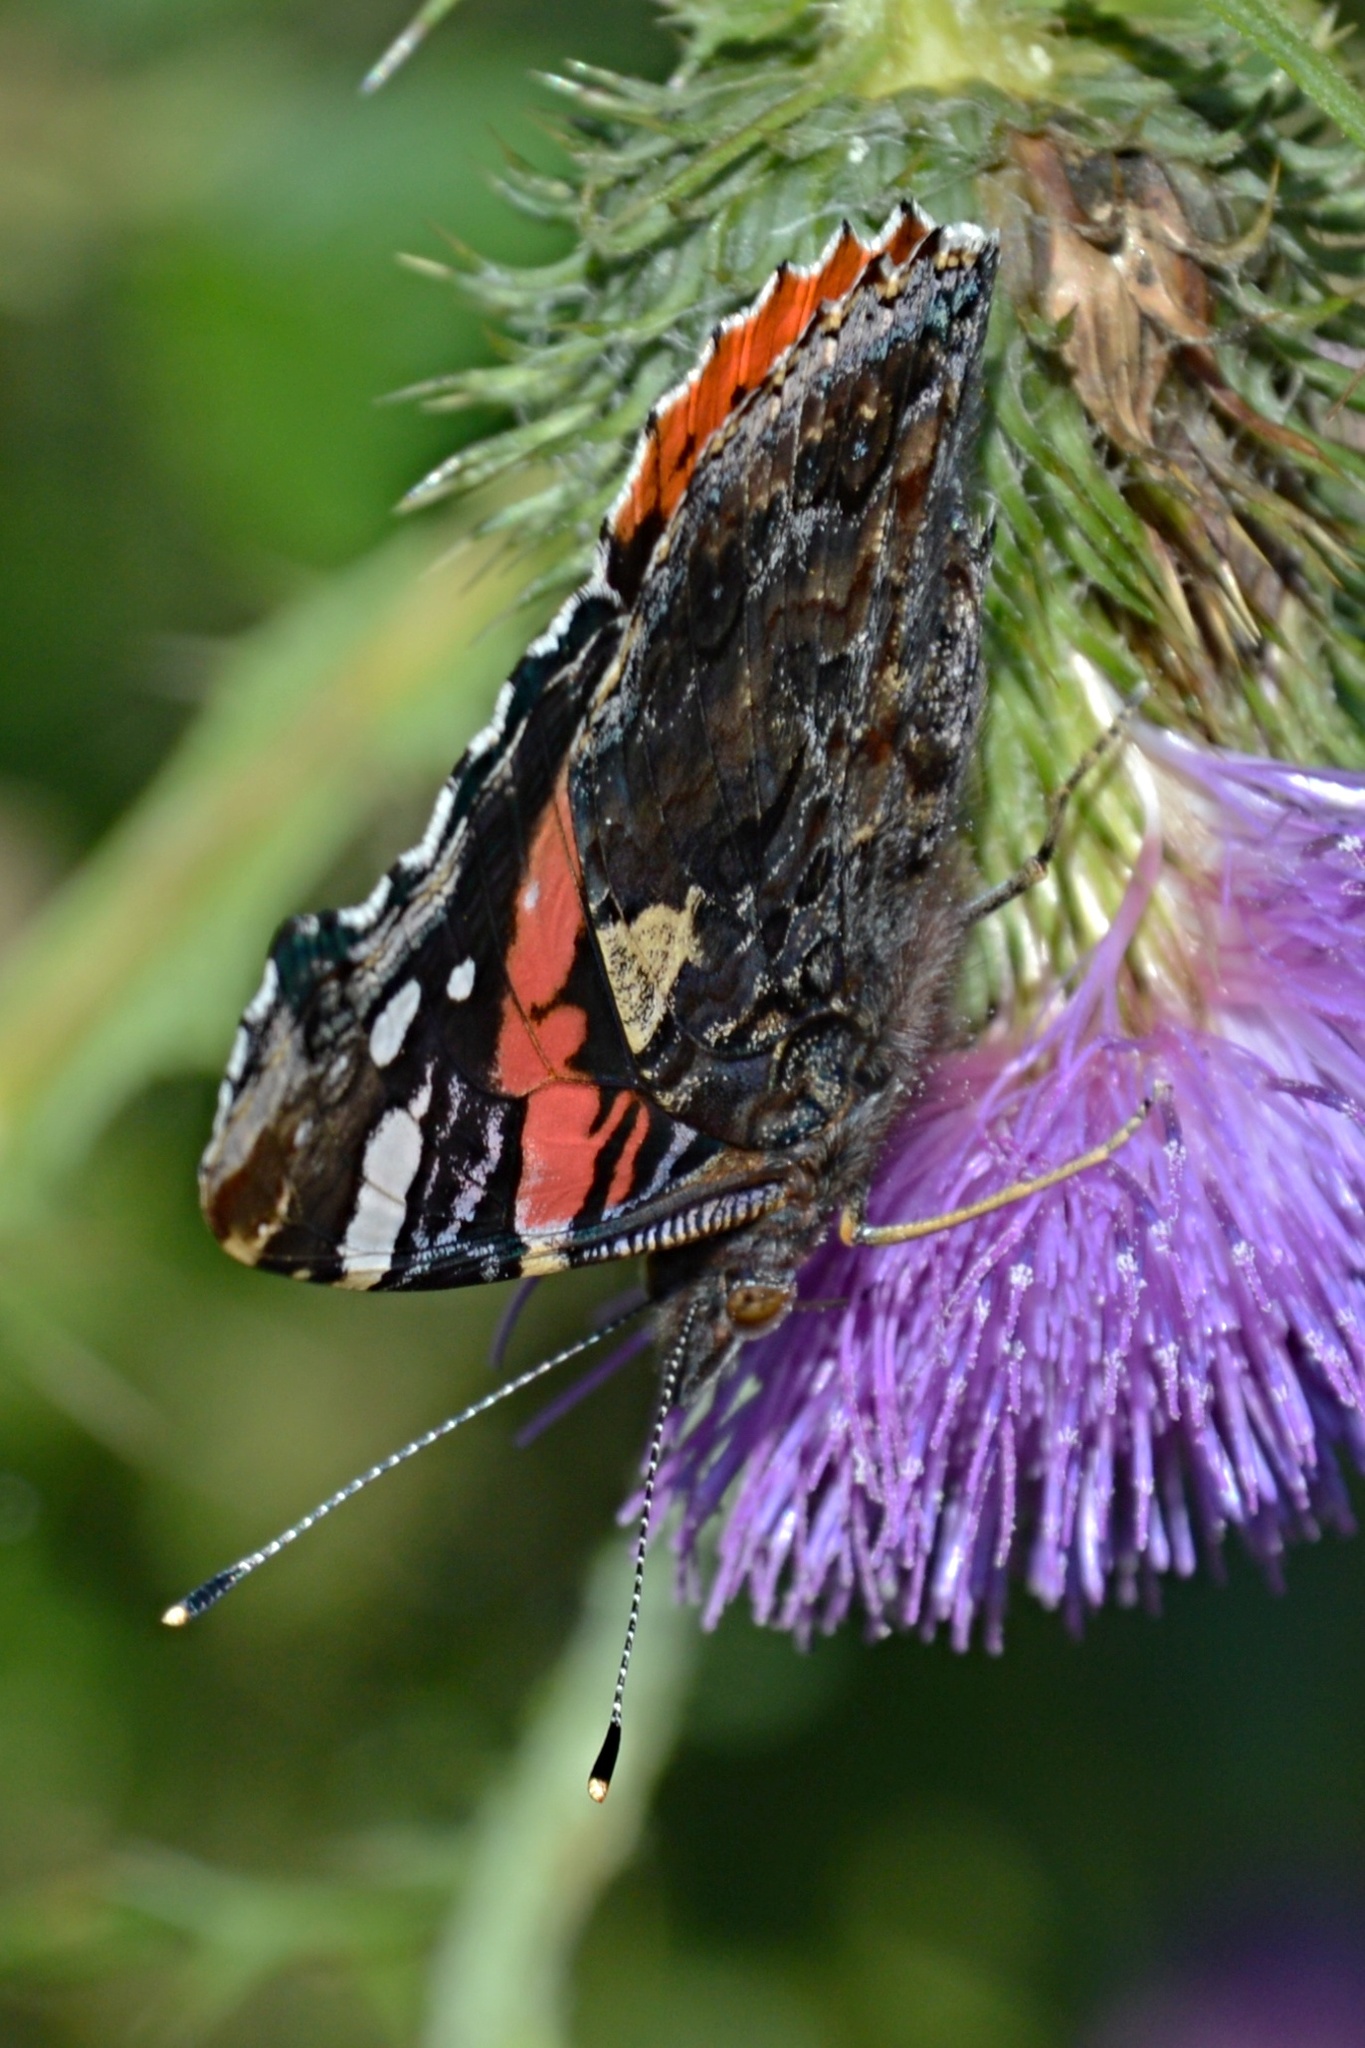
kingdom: Animalia
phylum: Arthropoda
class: Insecta
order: Lepidoptera
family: Nymphalidae
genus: Vanessa
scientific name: Vanessa atalanta
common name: Red admiral
